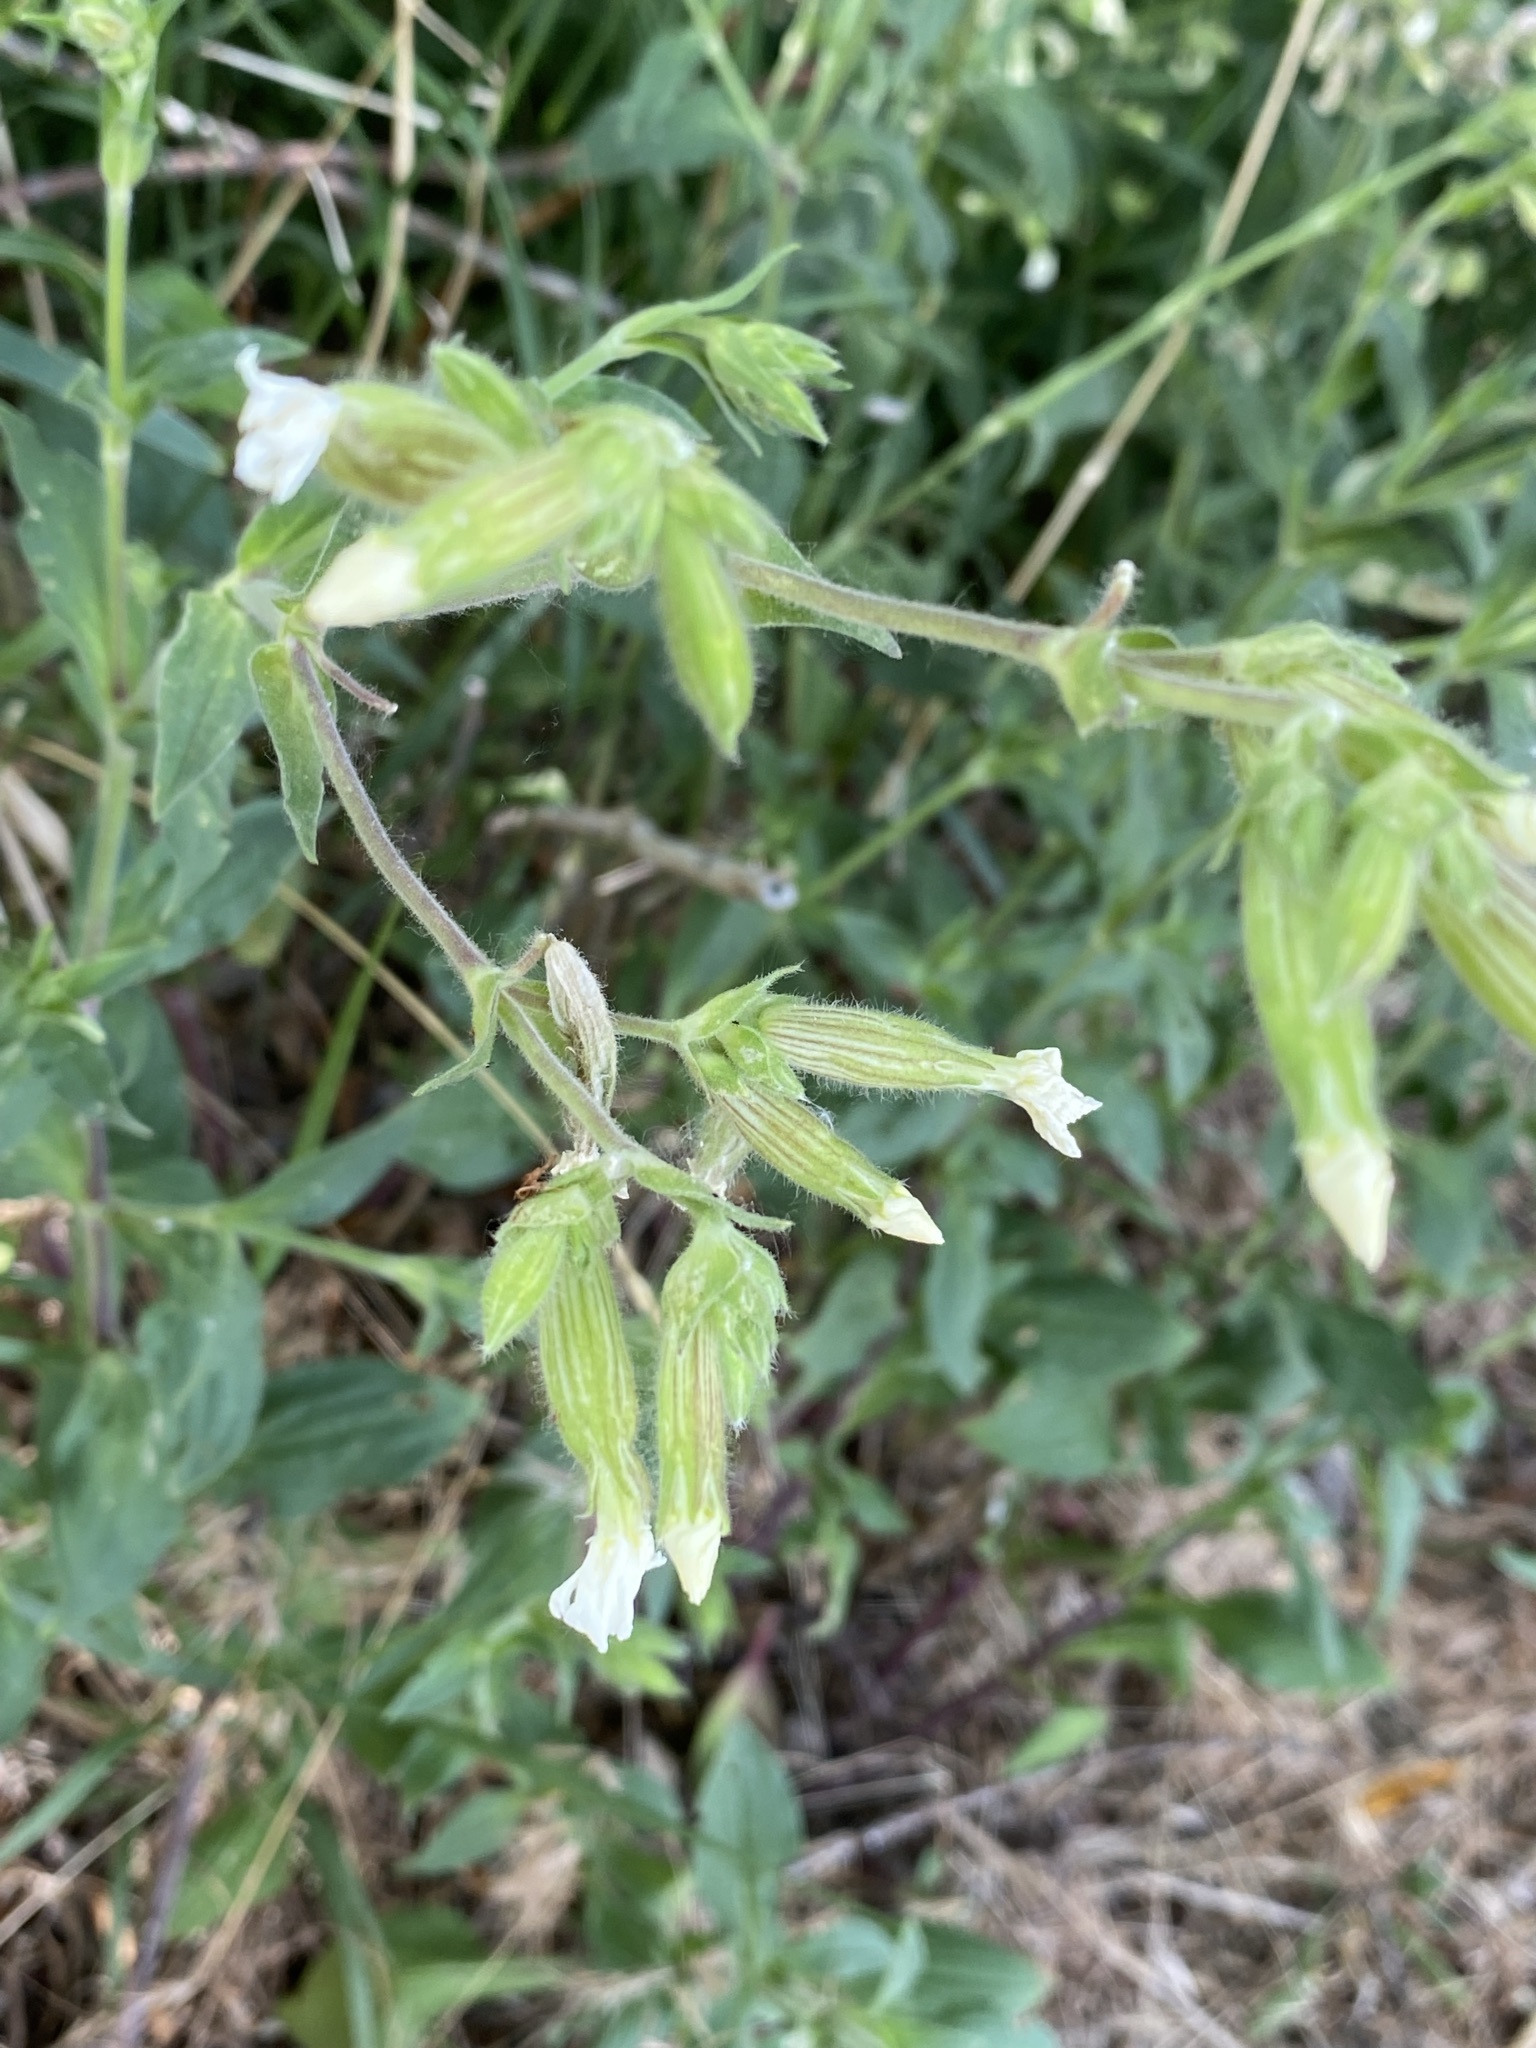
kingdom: Plantae
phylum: Tracheophyta
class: Magnoliopsida
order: Caryophyllales
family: Caryophyllaceae
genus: Silene
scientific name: Silene latifolia
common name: White campion
